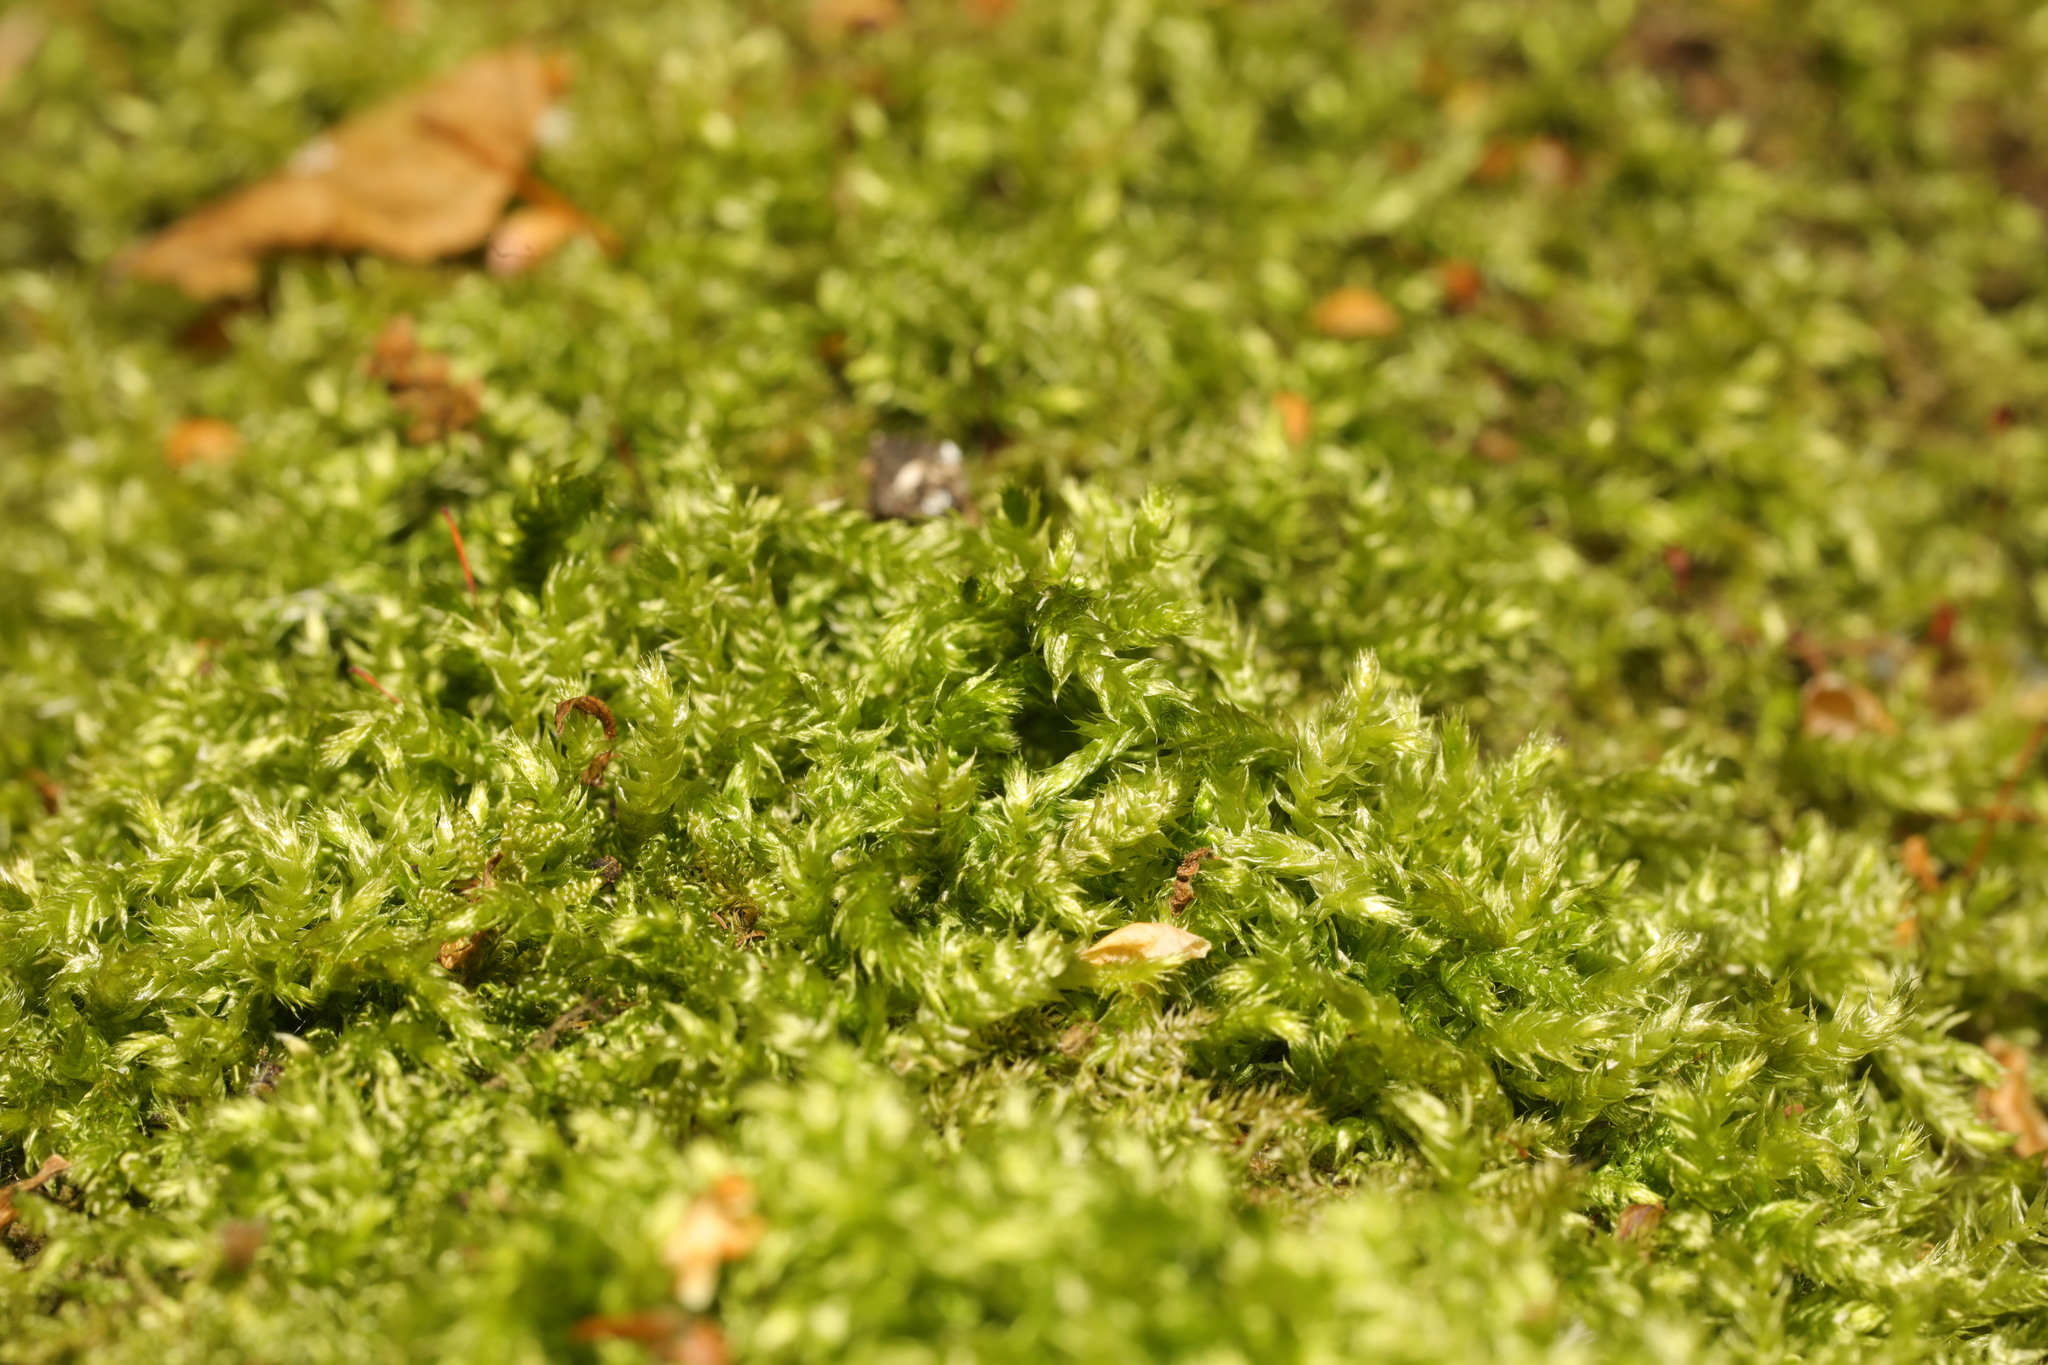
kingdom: Plantae
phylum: Bryophyta
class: Bryopsida
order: Hypnales
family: Brachytheciaceae
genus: Brachythecium
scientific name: Brachythecium rutabulum
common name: Rough-stalked feather-moss
